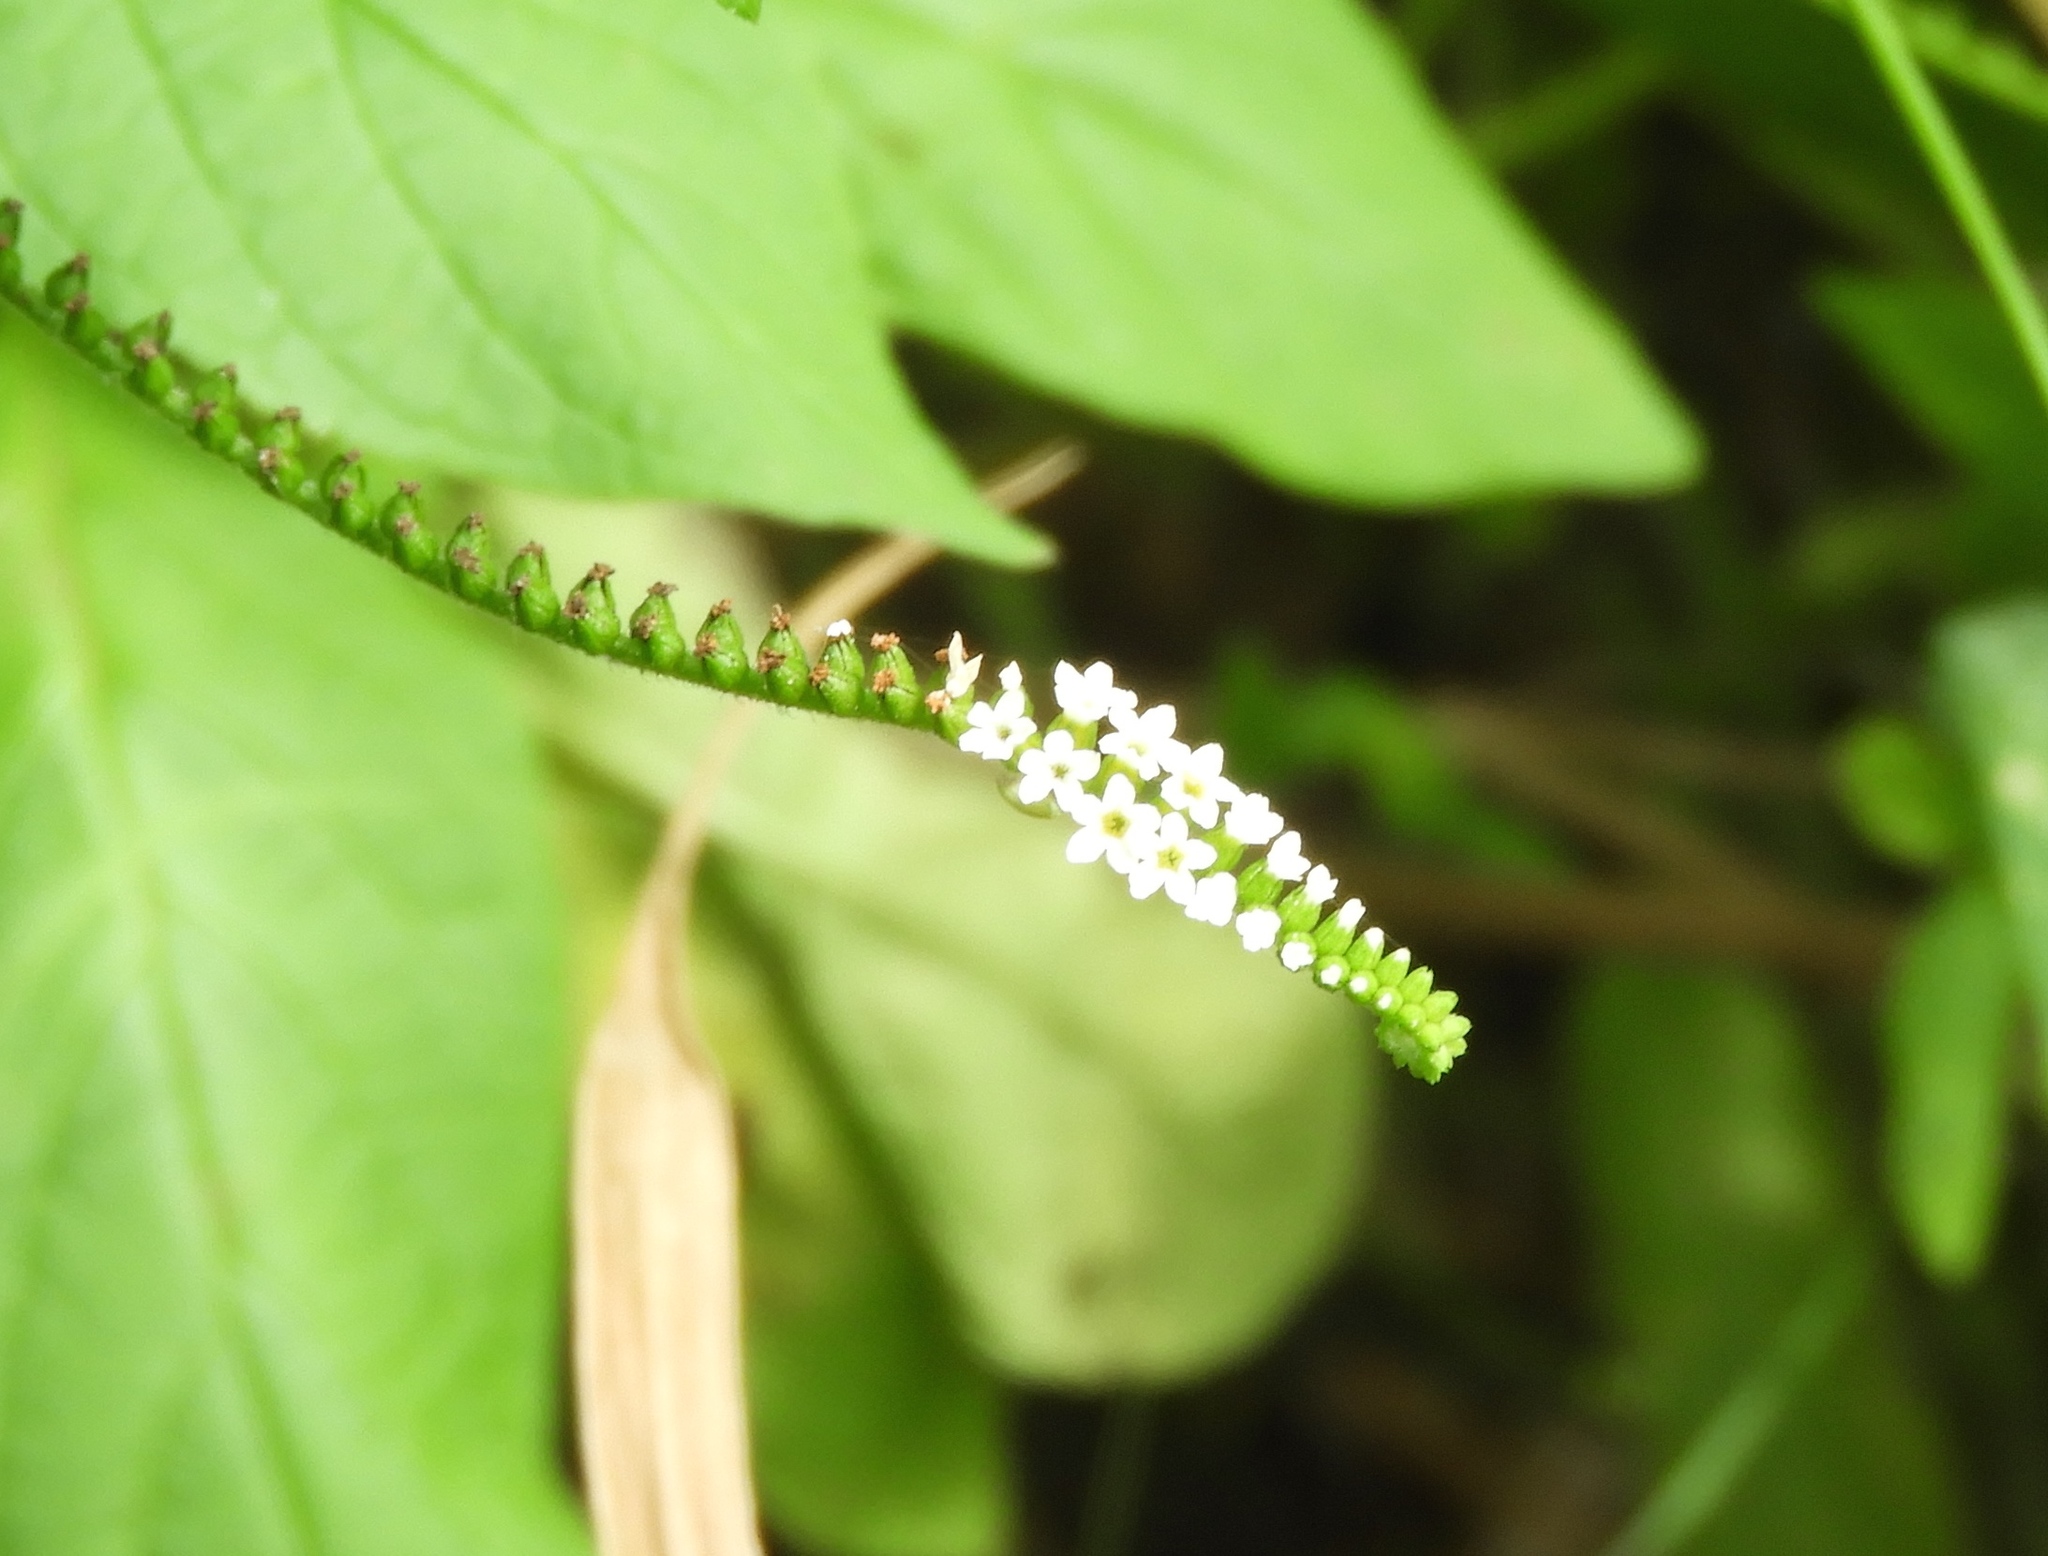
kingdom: Plantae
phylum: Tracheophyta
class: Magnoliopsida
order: Boraginales
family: Heliotropiaceae
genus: Heliotropium
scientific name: Heliotropium angiospermum
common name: Eye bright
